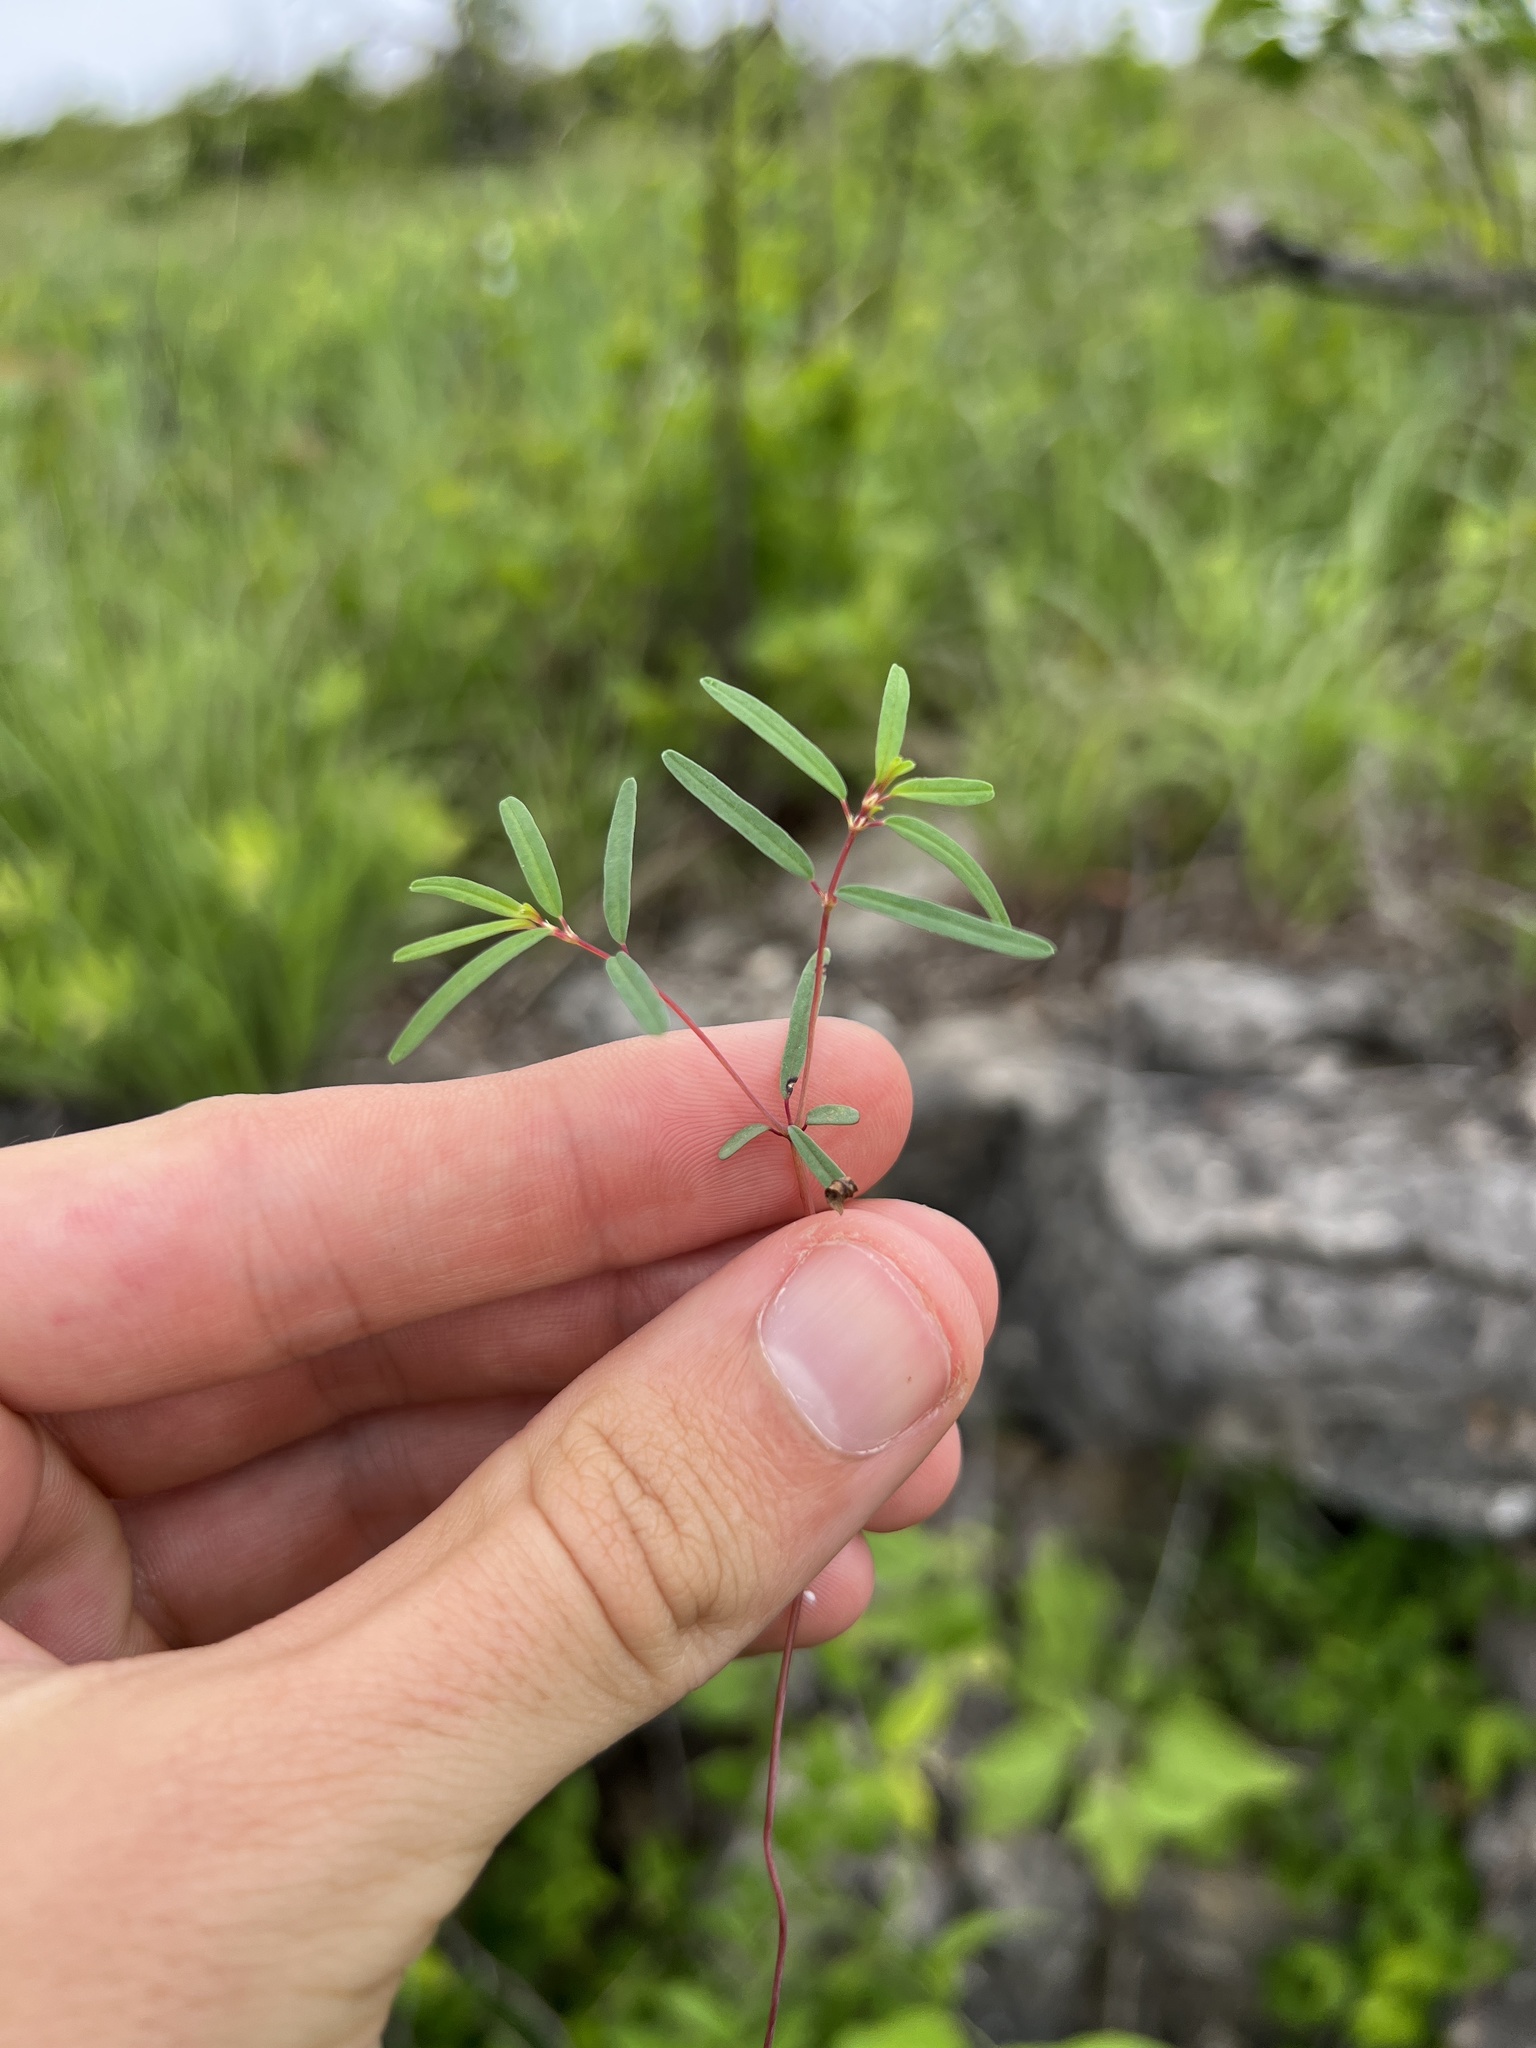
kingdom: Plantae
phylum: Tracheophyta
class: Magnoliopsida
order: Malpighiales
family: Euphorbiaceae
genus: Euphorbia
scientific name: Euphorbia missurica
